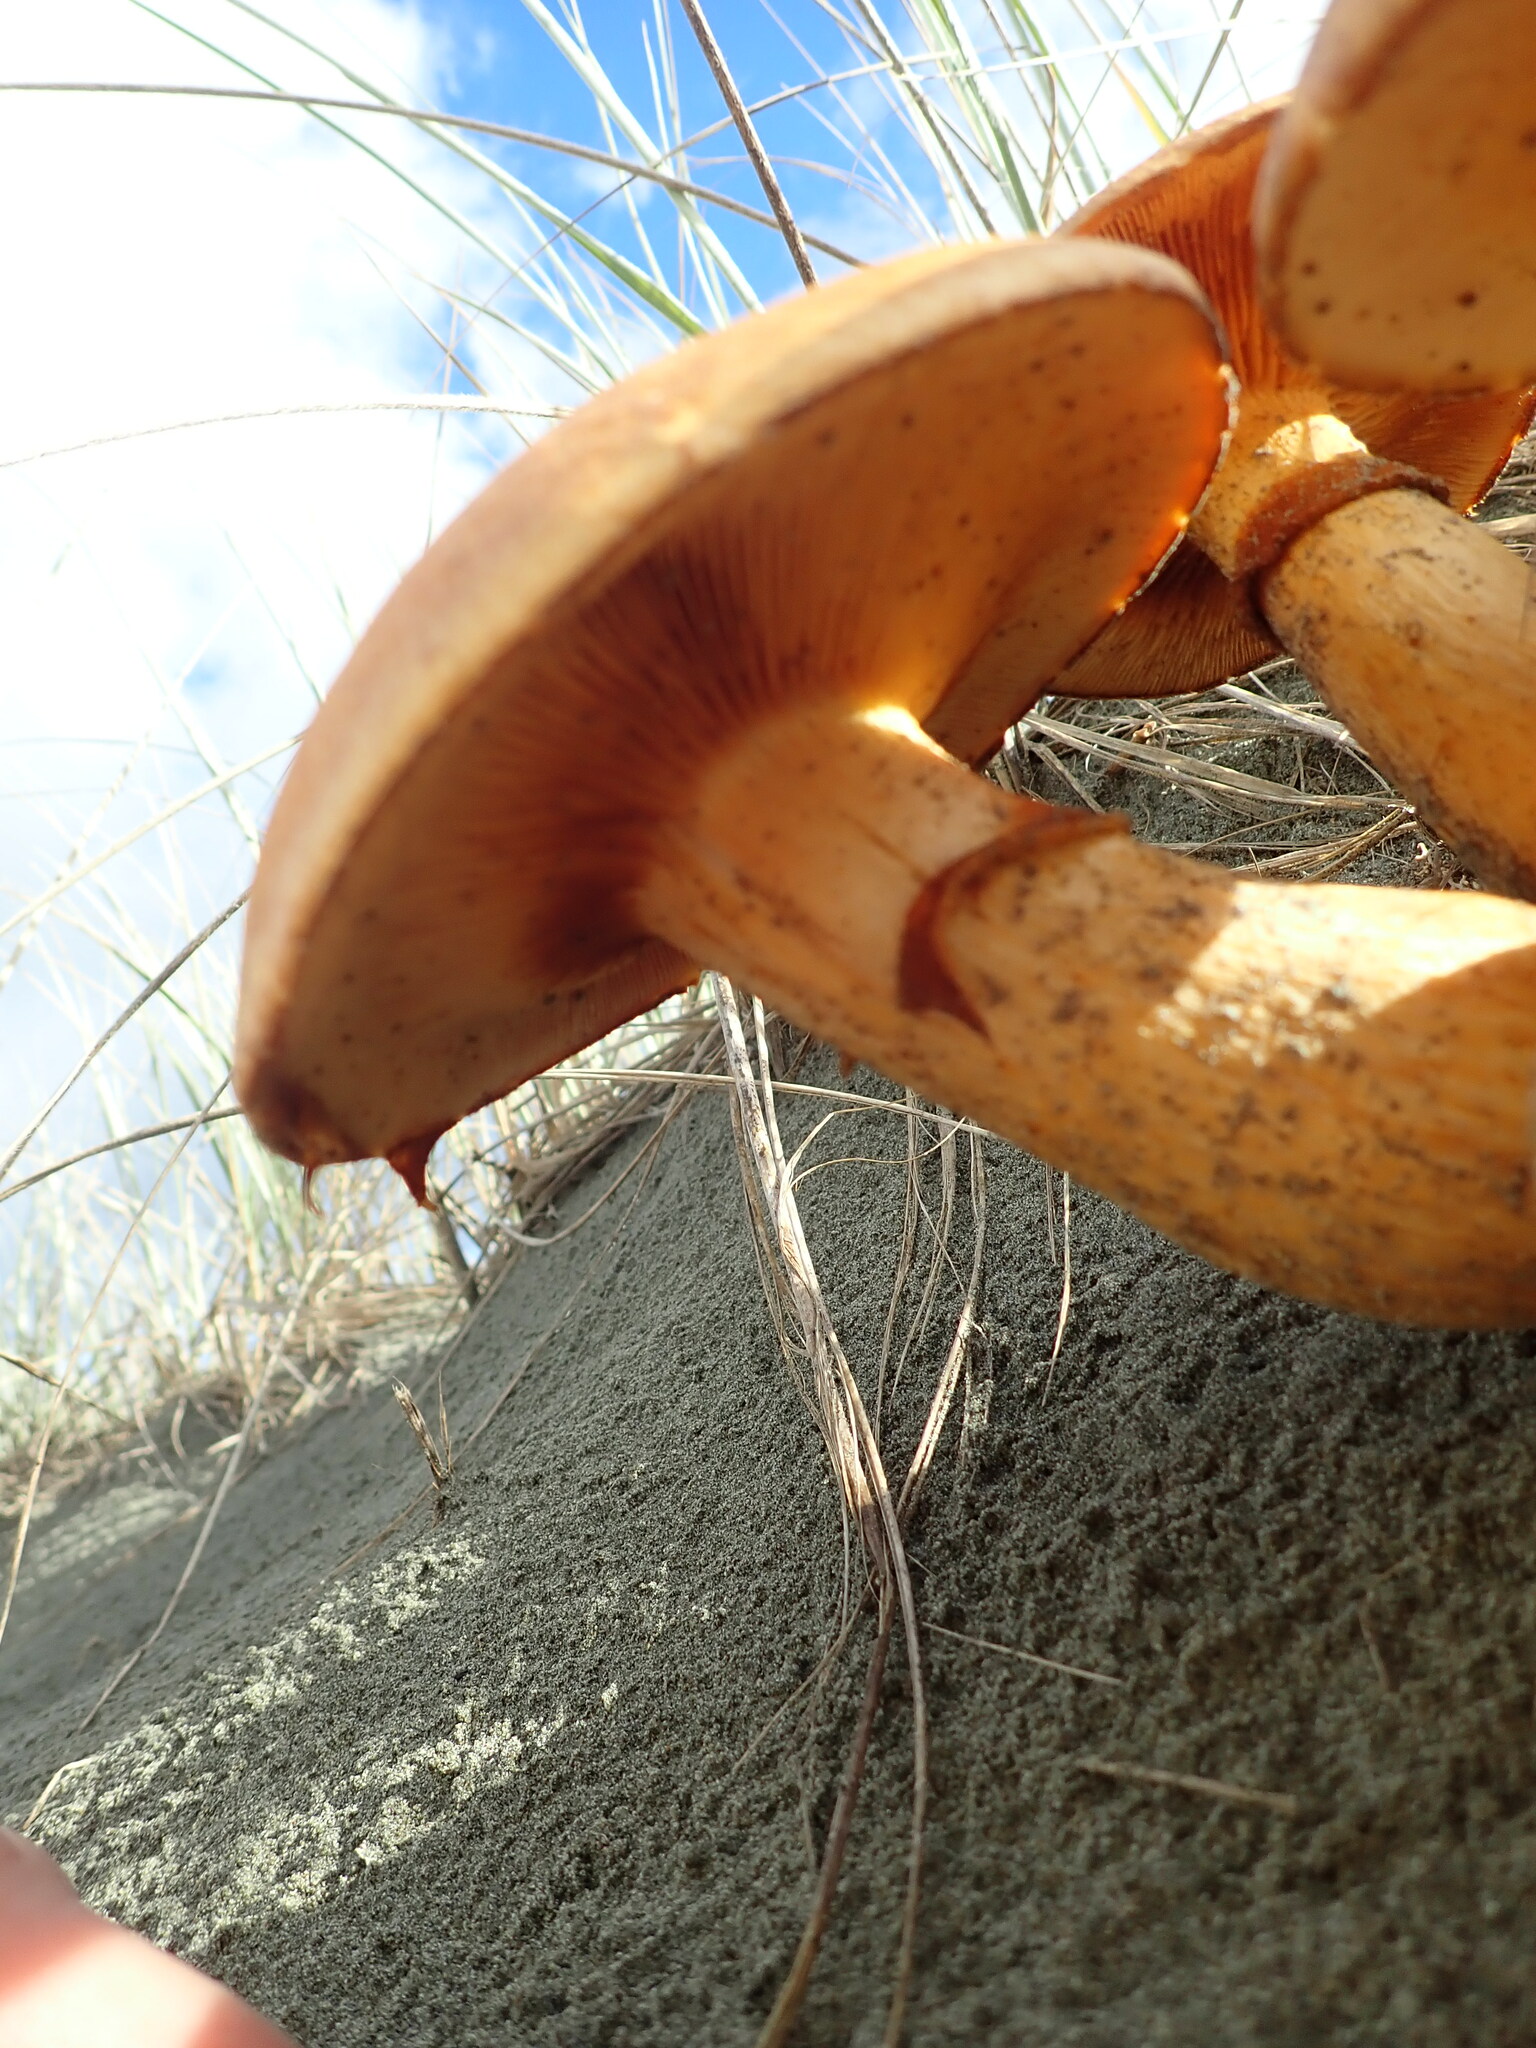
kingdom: Fungi
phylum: Basidiomycota
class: Agaricomycetes
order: Agaricales
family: Hymenogastraceae
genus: Gymnopilus
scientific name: Gymnopilus junonius
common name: Spectacular rustgill
